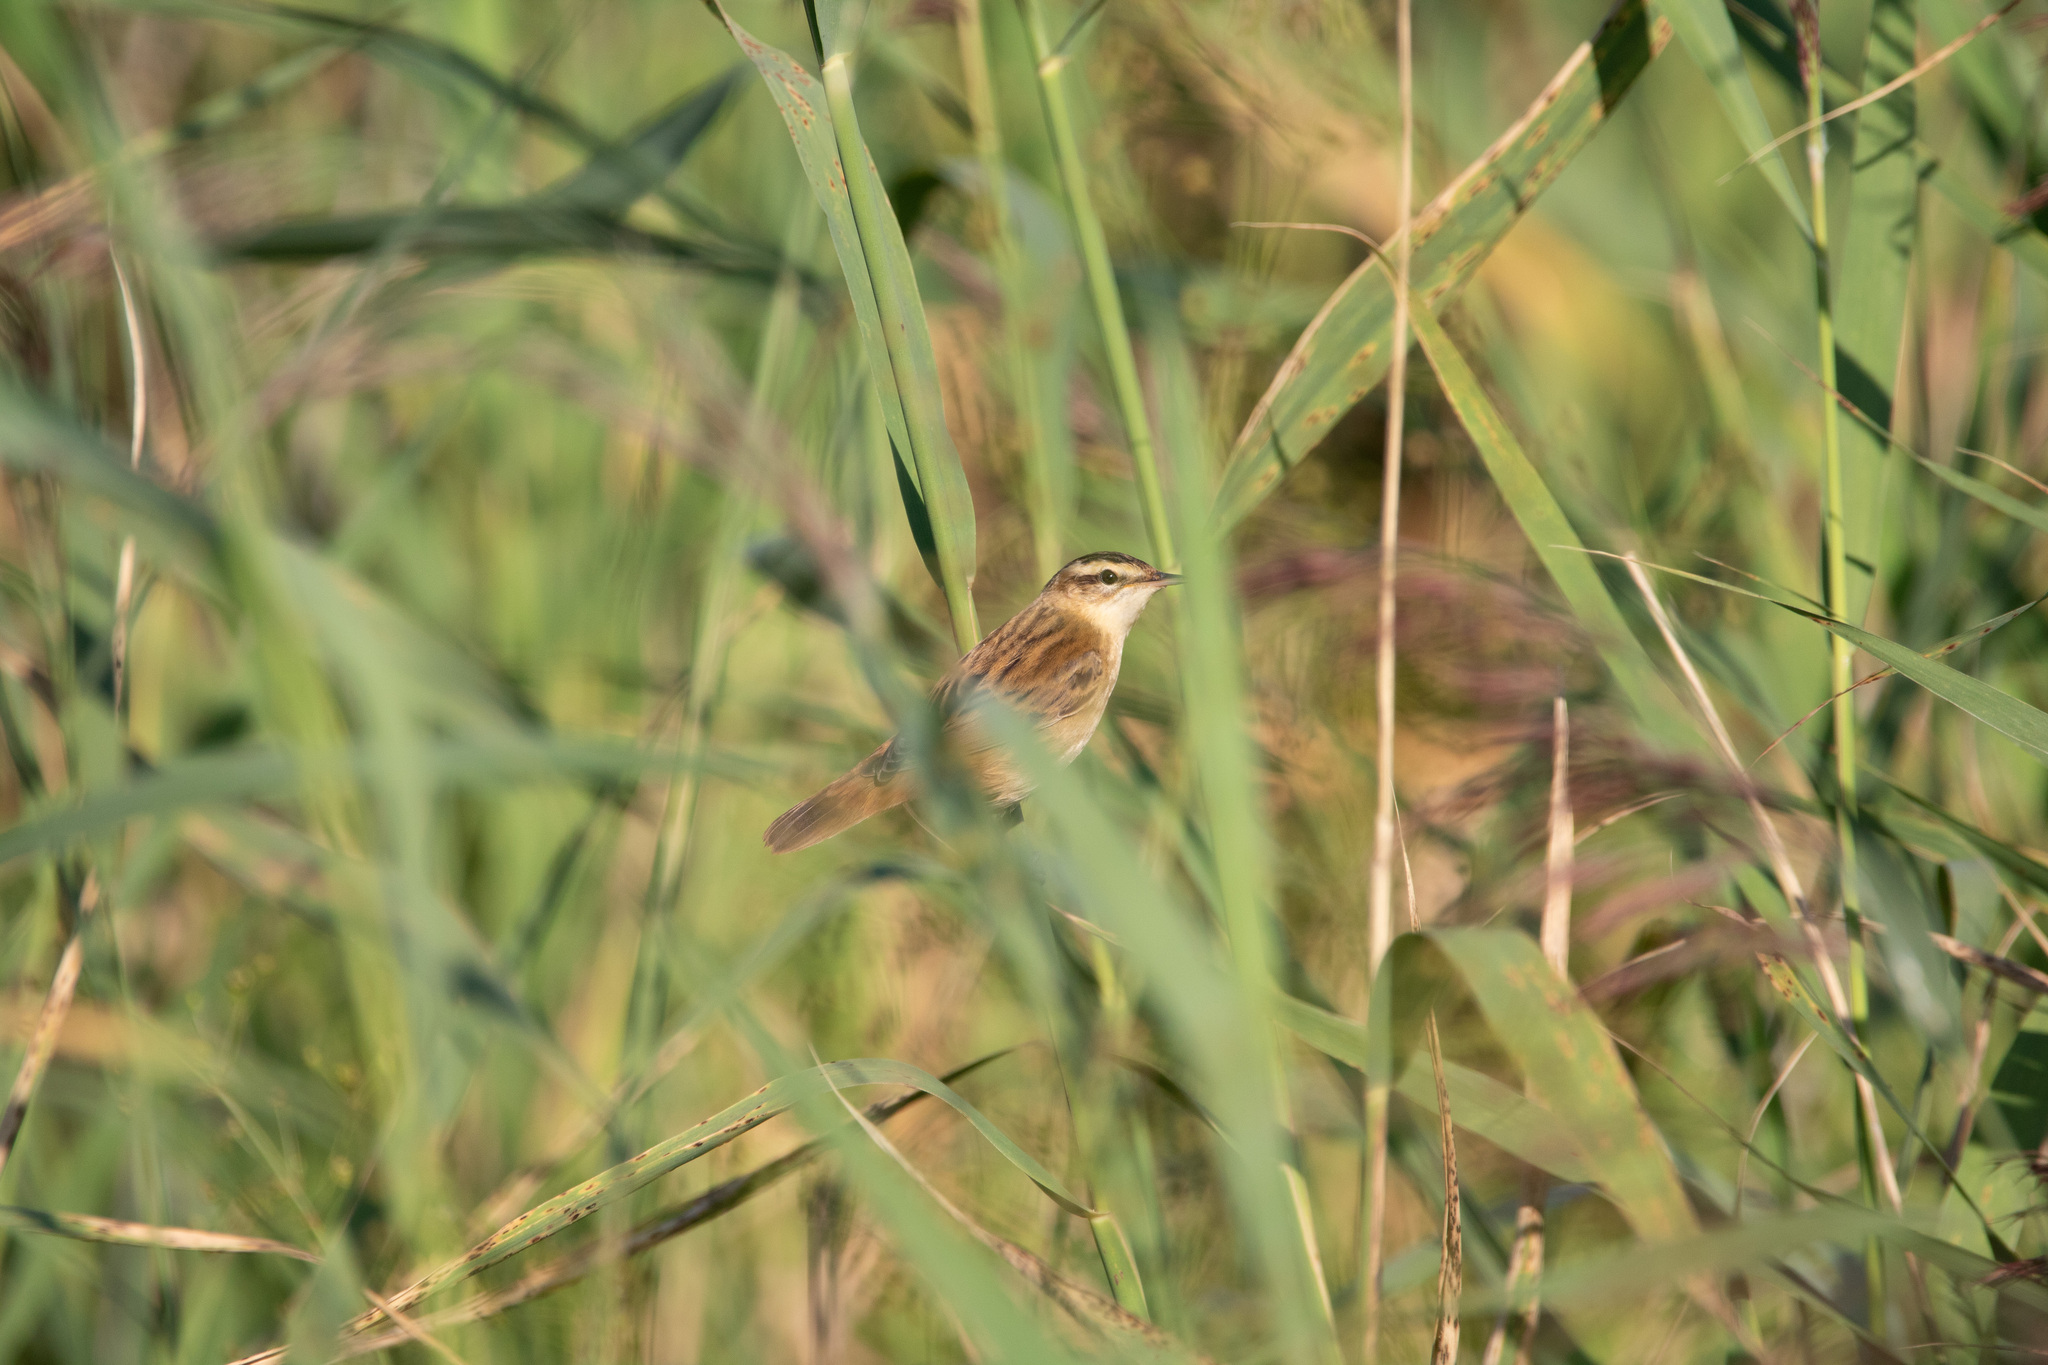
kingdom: Animalia
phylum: Chordata
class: Aves
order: Passeriformes
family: Acrocephalidae
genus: Acrocephalus
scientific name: Acrocephalus schoenobaenus
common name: Sedge warbler
